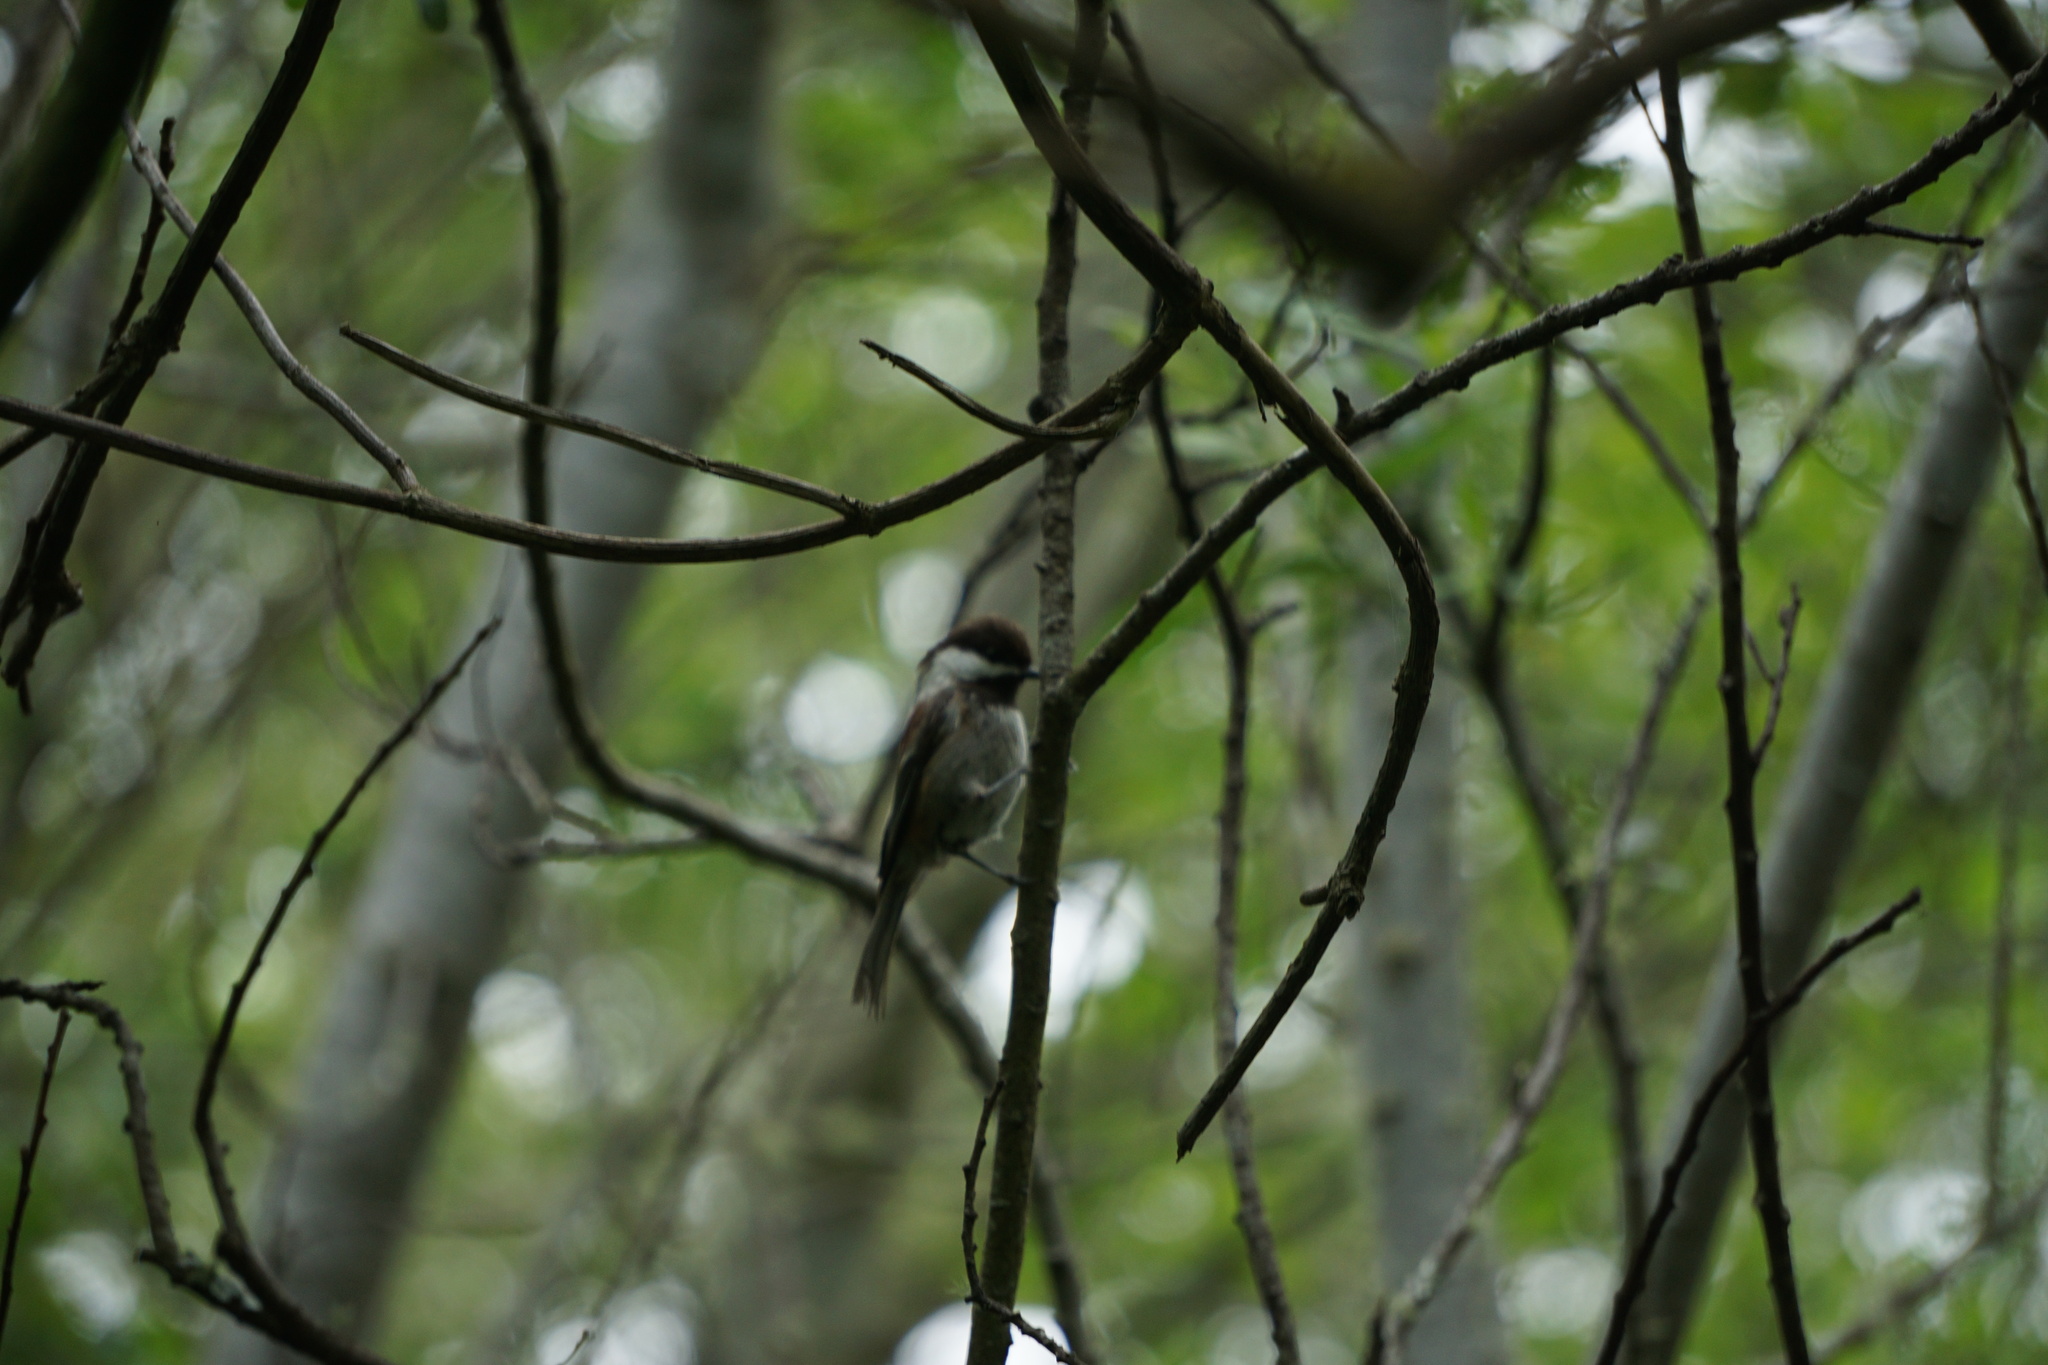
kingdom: Animalia
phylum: Chordata
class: Aves
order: Passeriformes
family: Paridae
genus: Poecile
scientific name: Poecile rufescens
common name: Chestnut-backed chickadee
